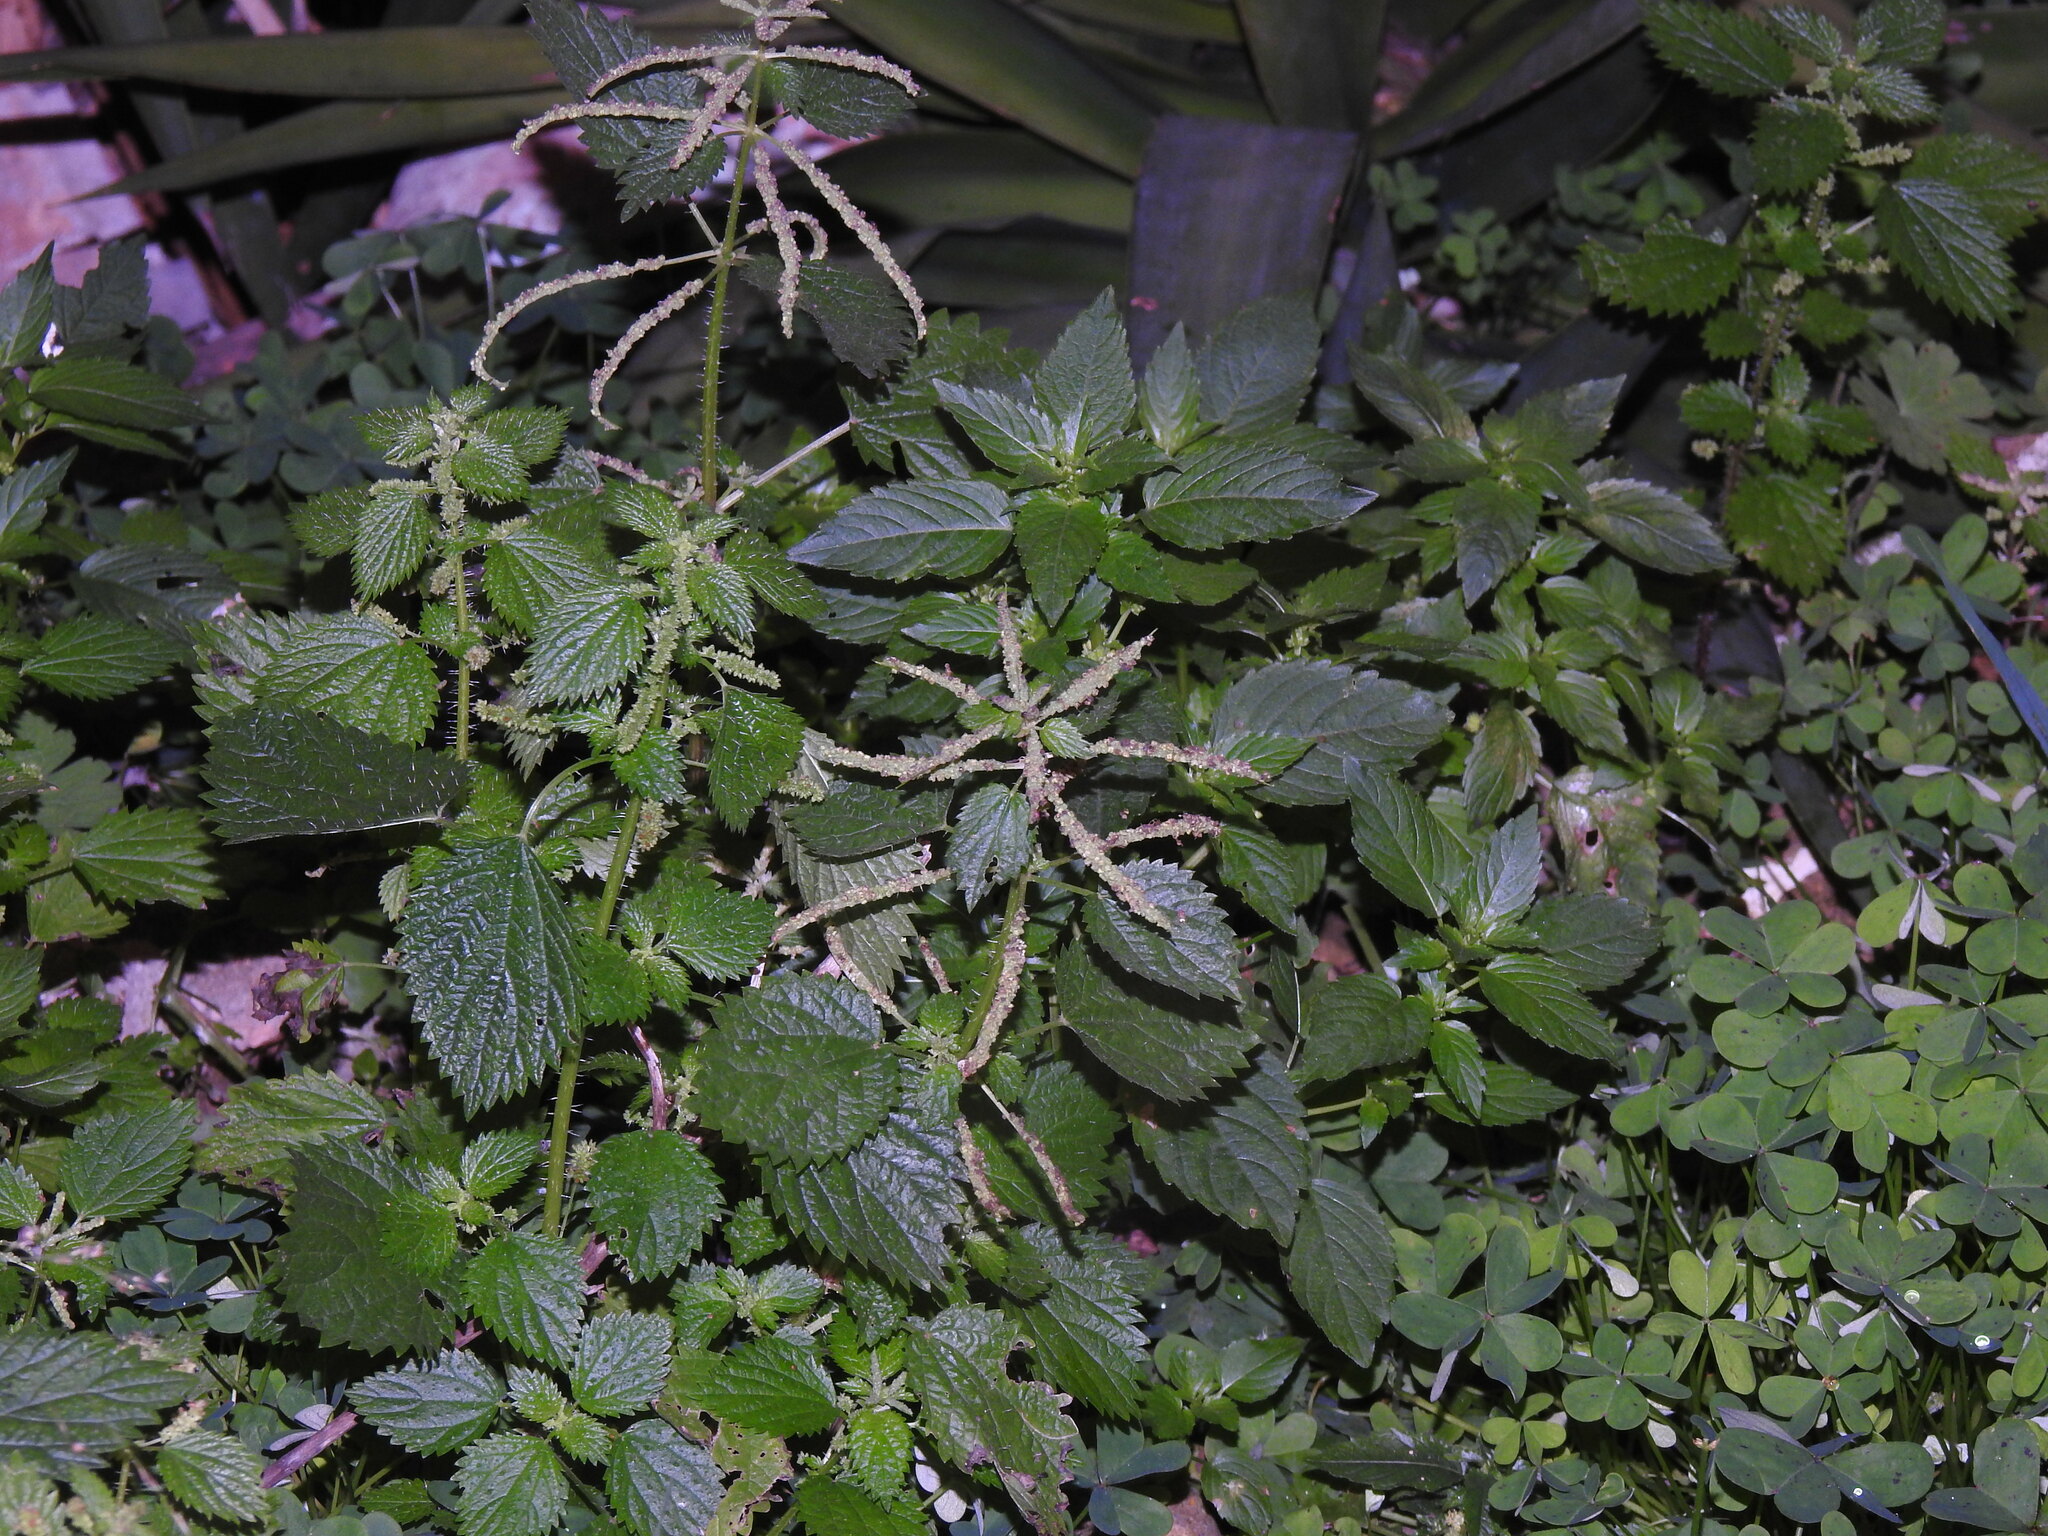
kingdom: Plantae
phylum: Tracheophyta
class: Magnoliopsida
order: Rosales
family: Urticaceae
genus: Urtica
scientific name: Urtica membranacea
